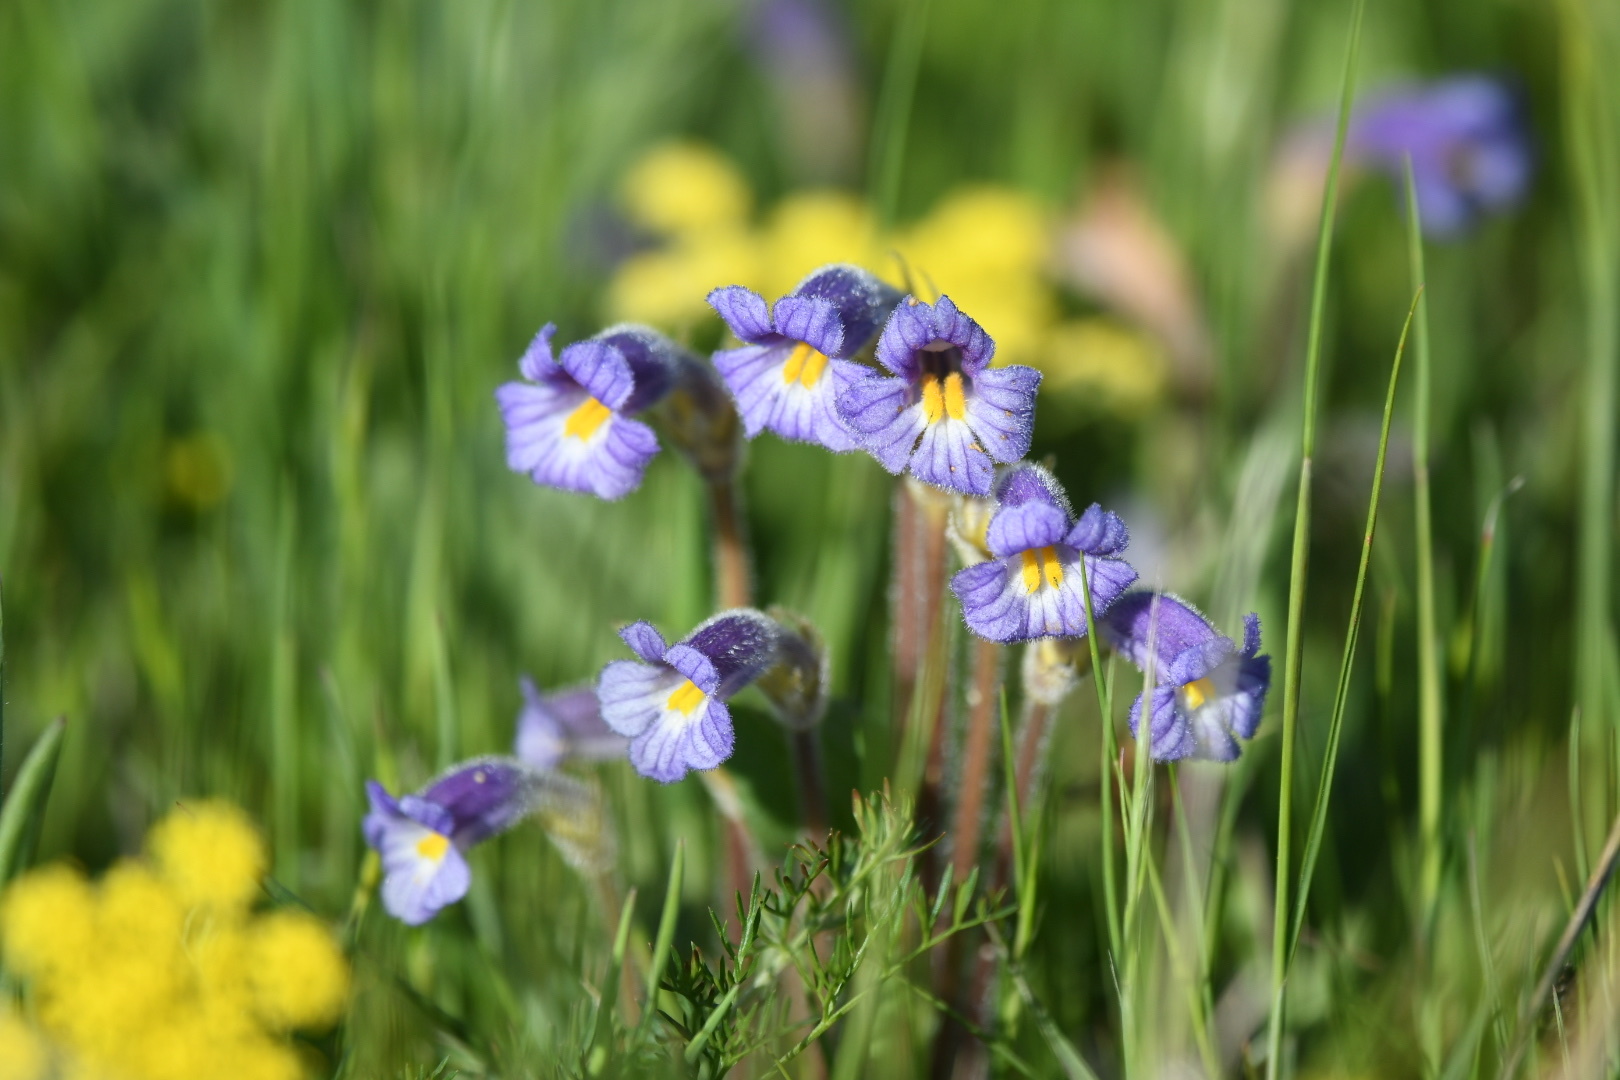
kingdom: Plantae
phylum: Tracheophyta
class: Magnoliopsida
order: Lamiales
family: Orobanchaceae
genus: Aphyllon
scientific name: Aphyllon uniflorum
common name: One-flowered broomrape
